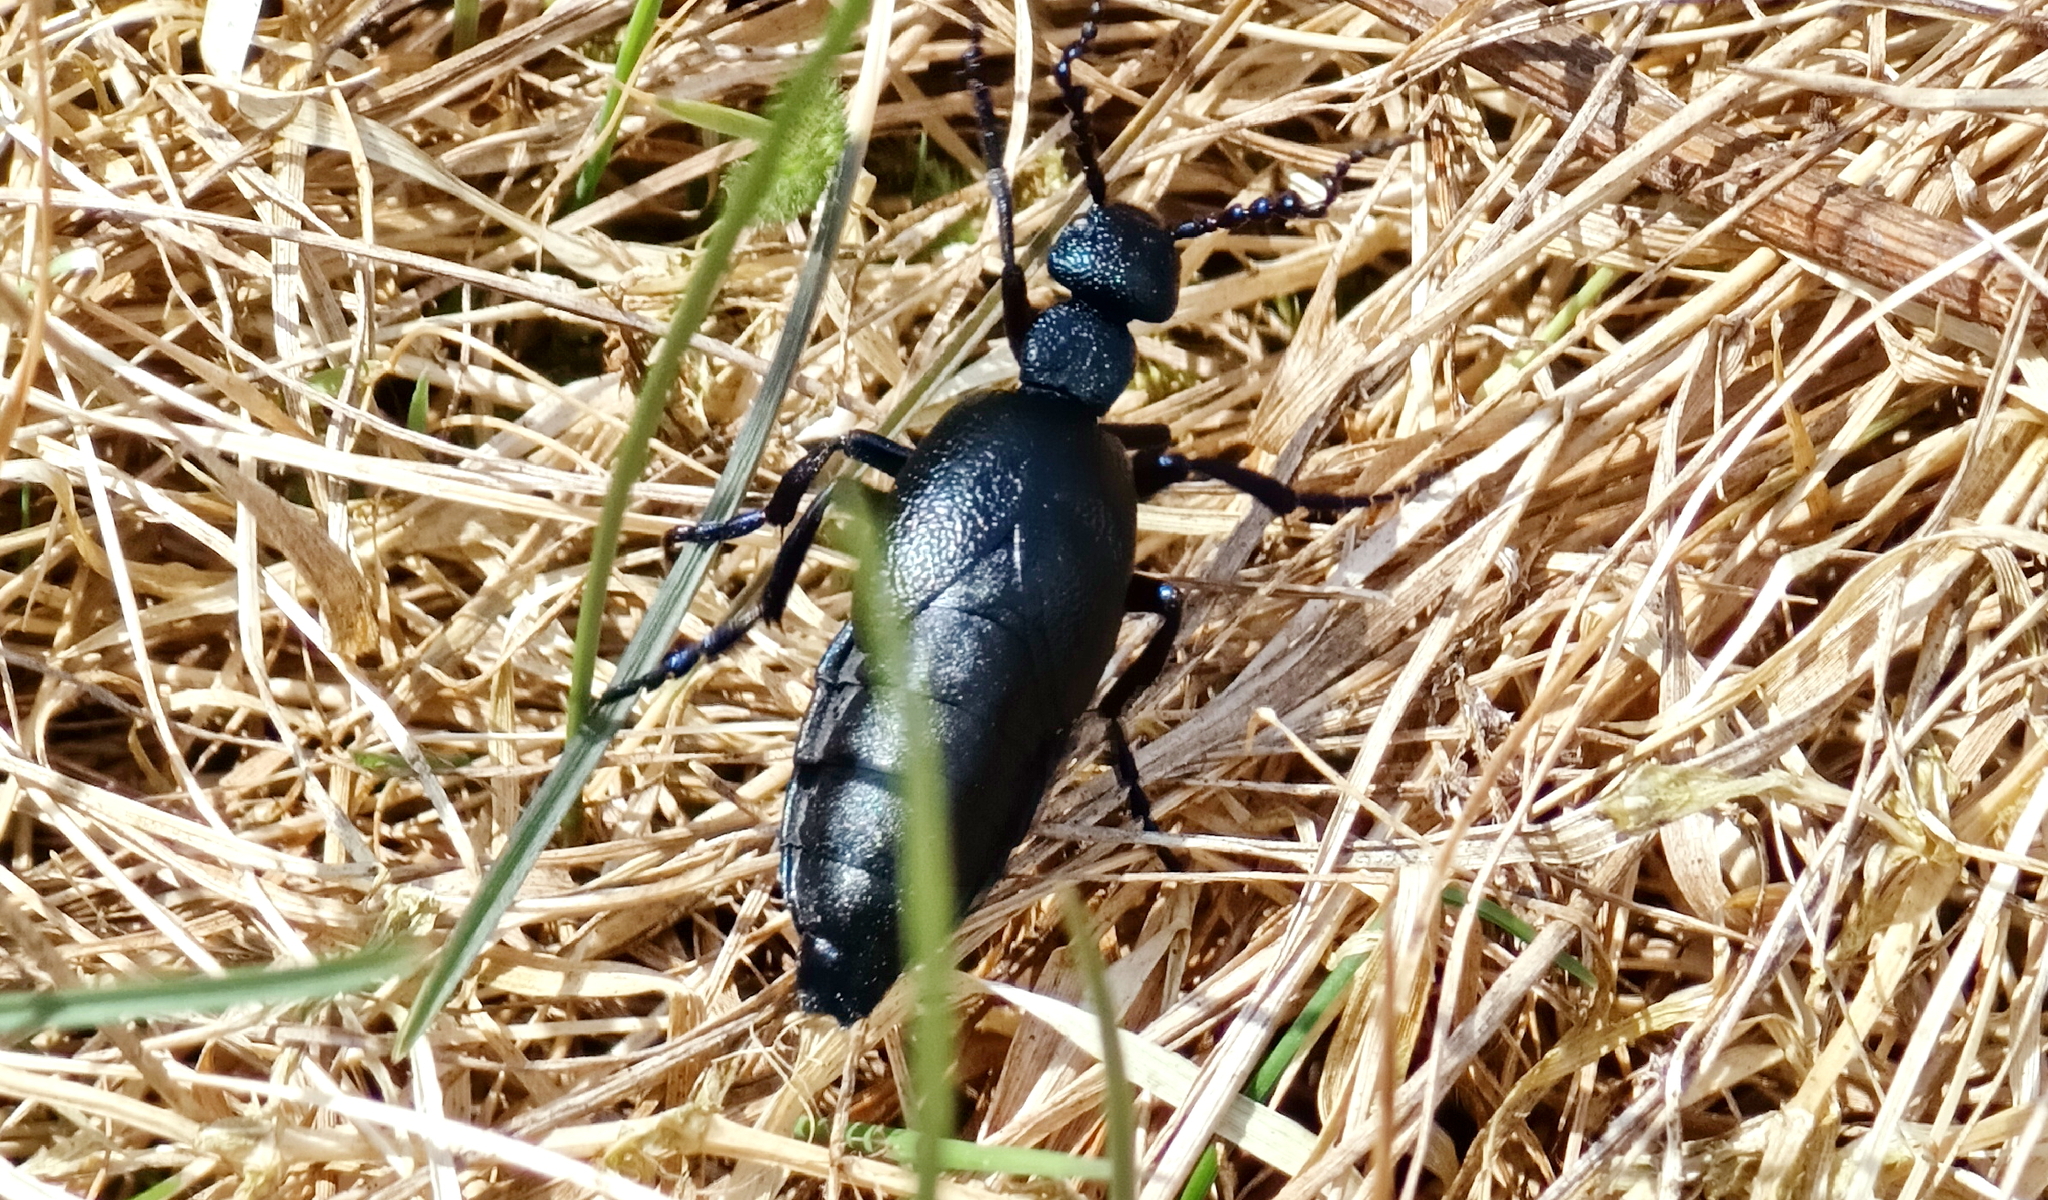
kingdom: Animalia
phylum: Arthropoda
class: Insecta
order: Coleoptera
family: Meloidae
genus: Meloe
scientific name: Meloe proscarabaeus
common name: Black oil-beetle
